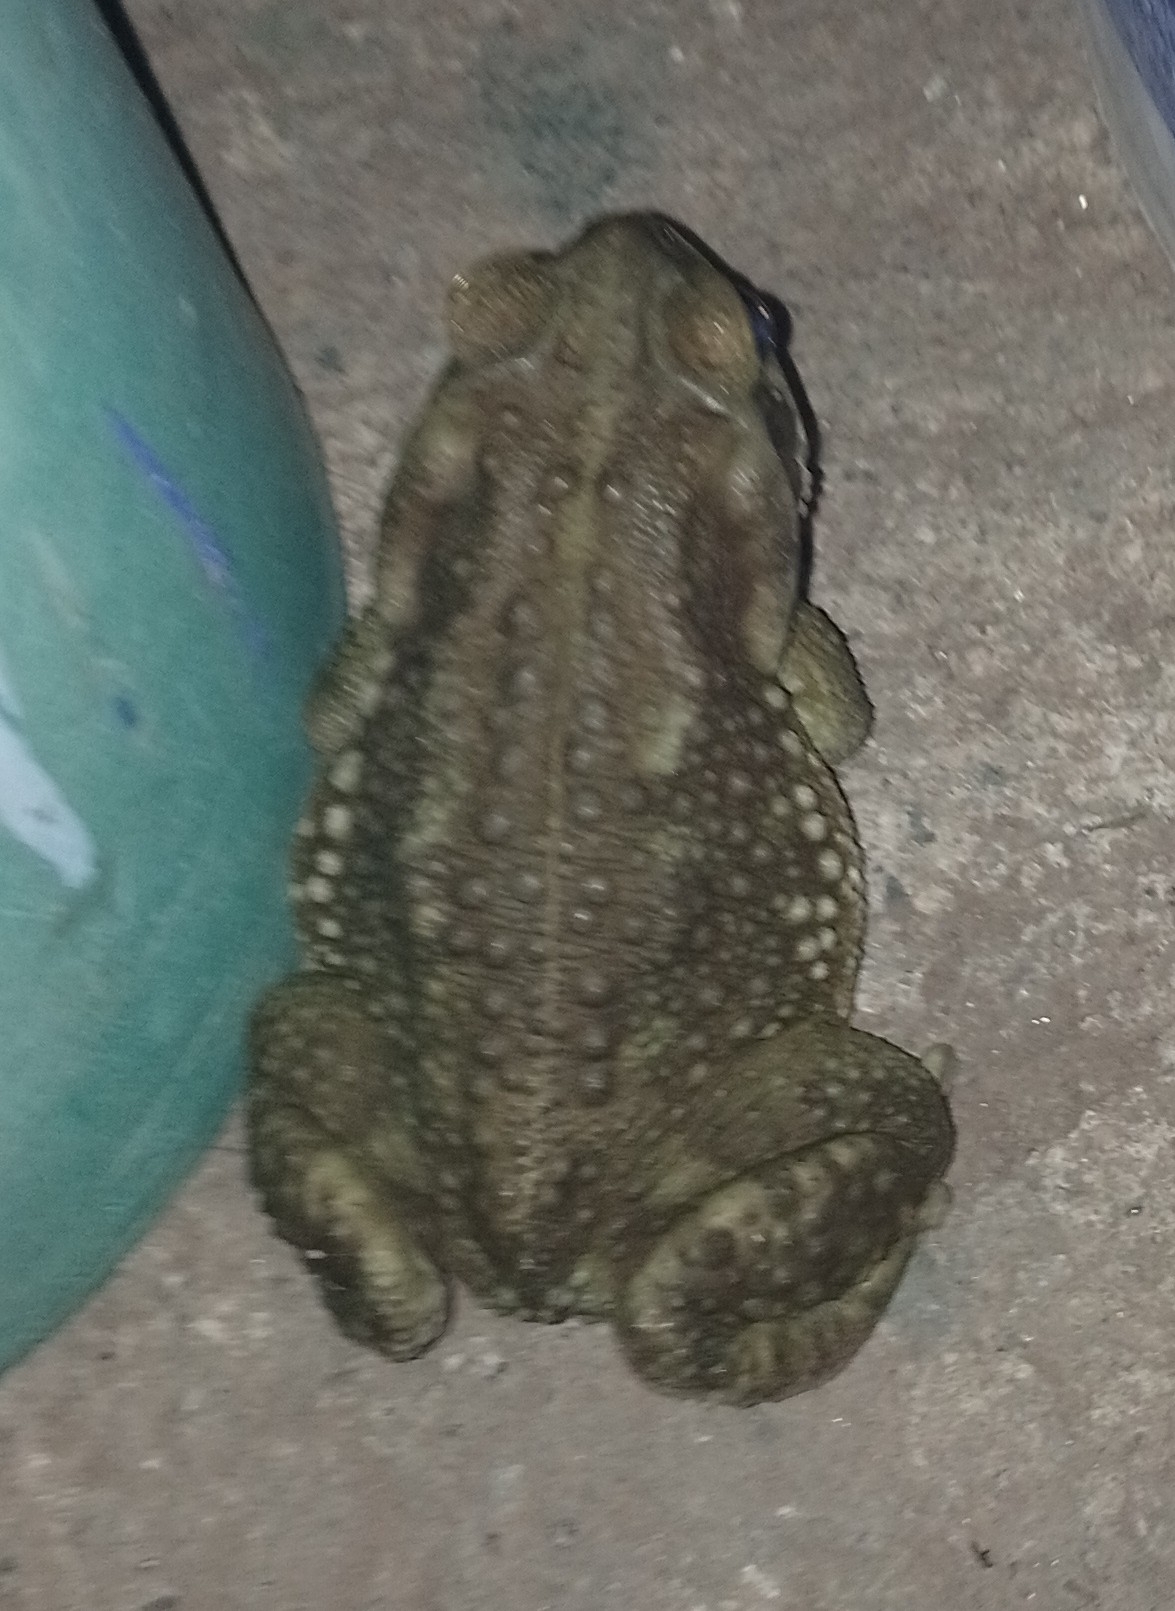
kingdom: Animalia
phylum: Chordata
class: Amphibia
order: Anura
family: Bufonidae
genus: Rhinella
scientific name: Rhinella arenarum
